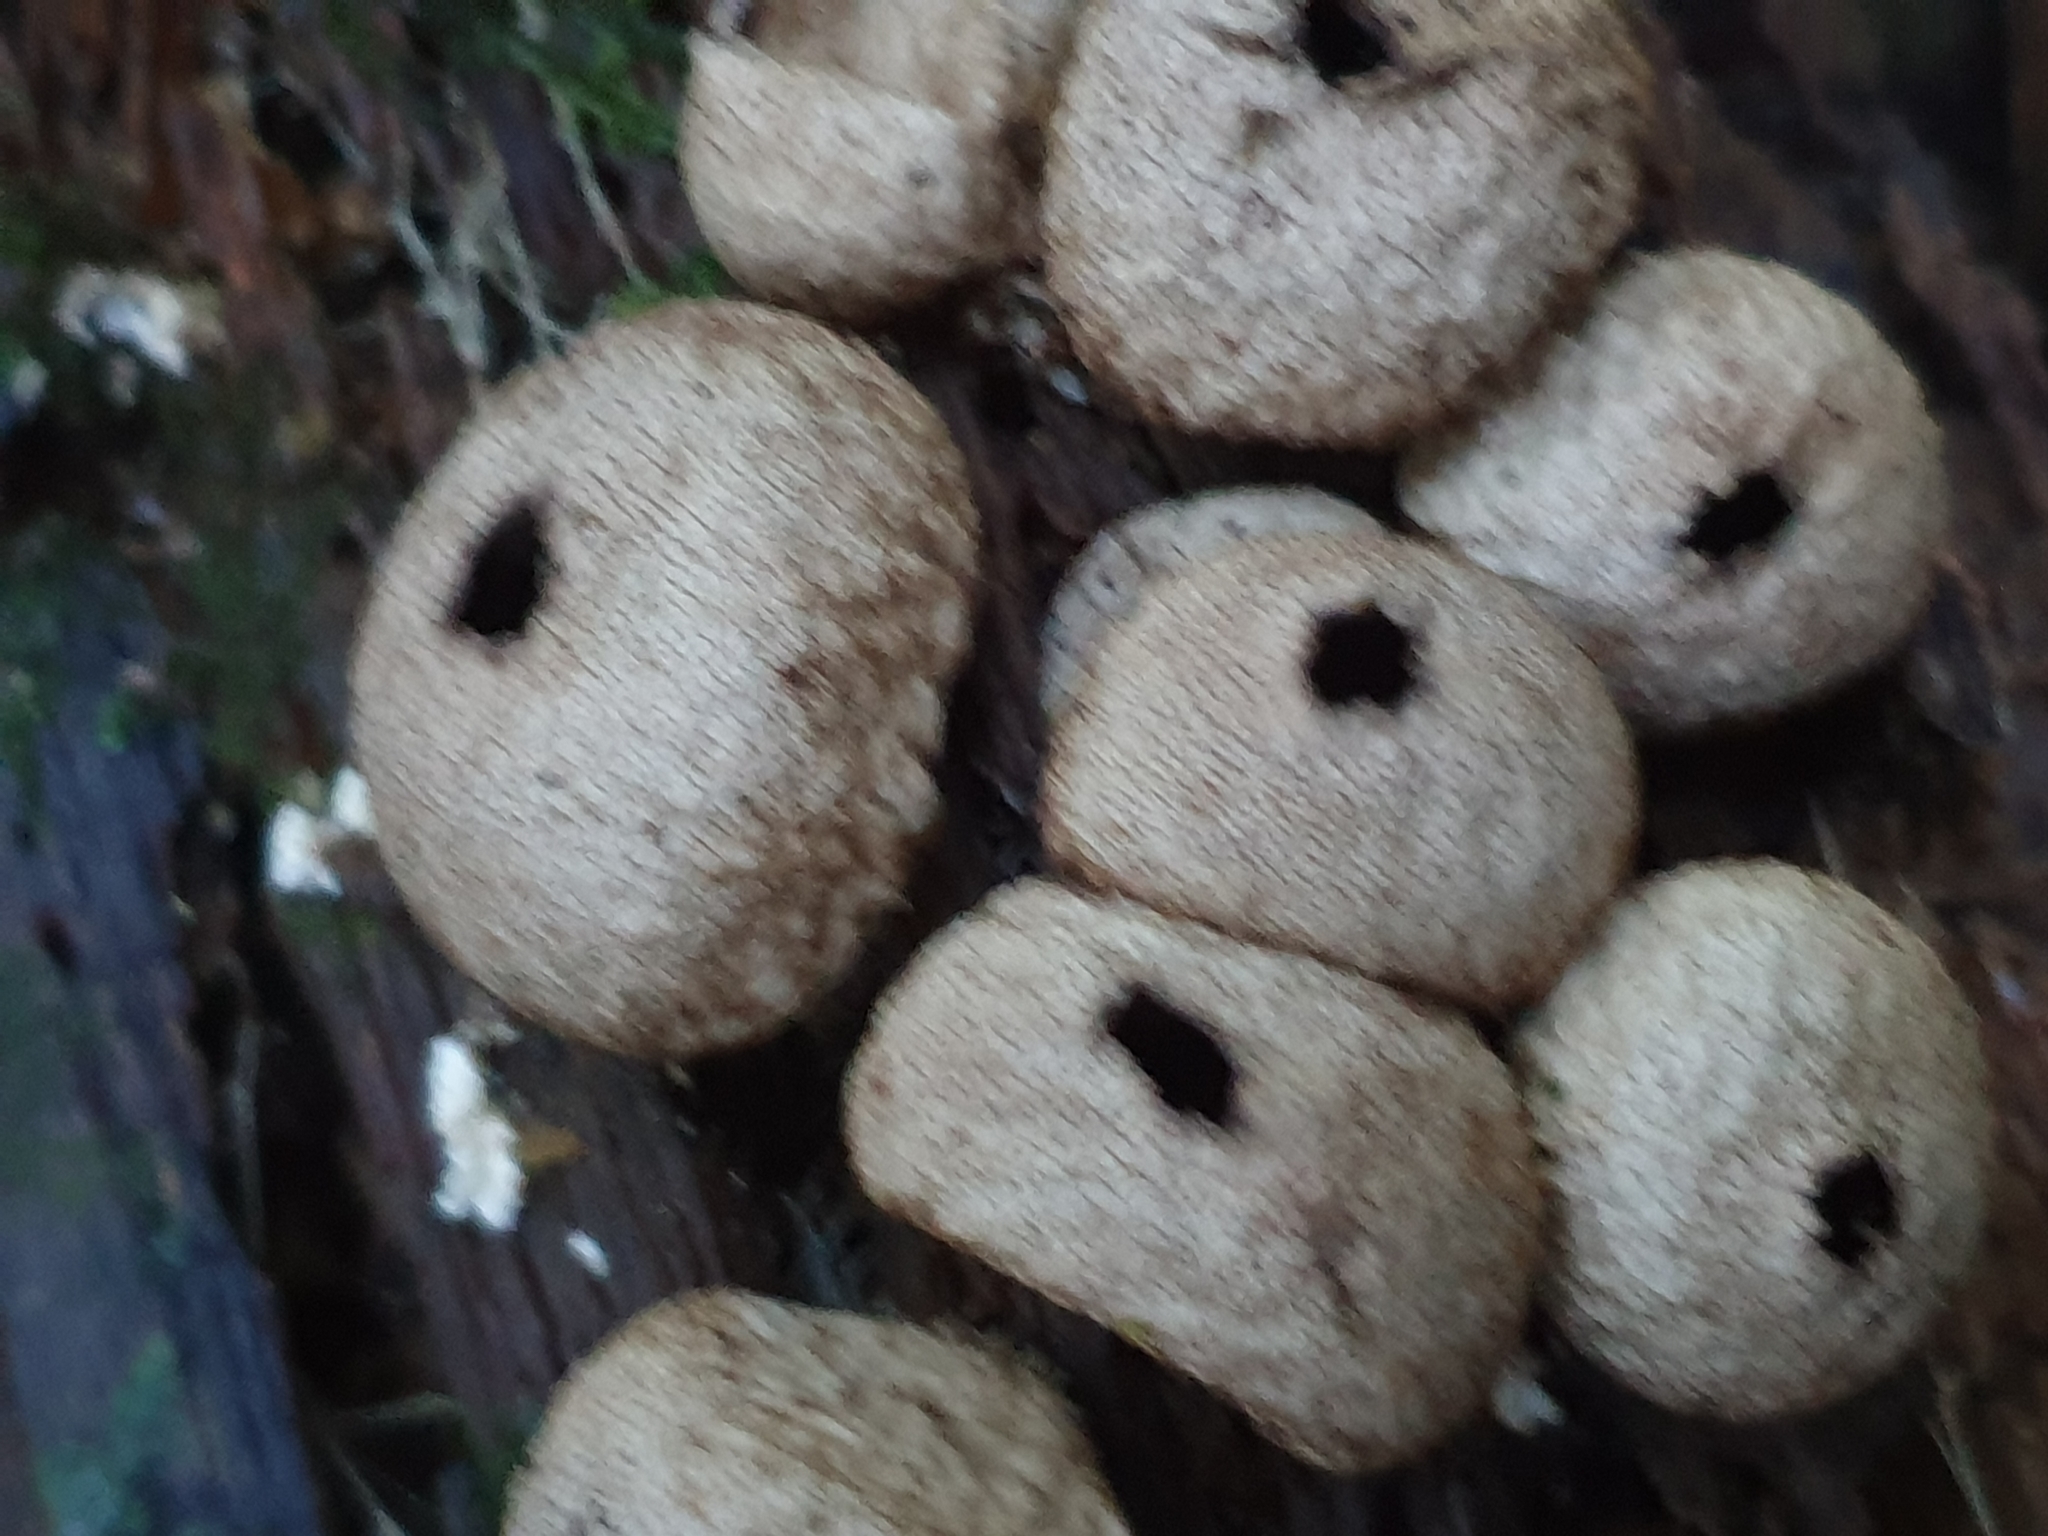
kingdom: Fungi
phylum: Basidiomycota
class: Agaricomycetes
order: Agaricales
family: Lycoperdaceae
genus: Lycoperdon
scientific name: Lycoperdon compactum
